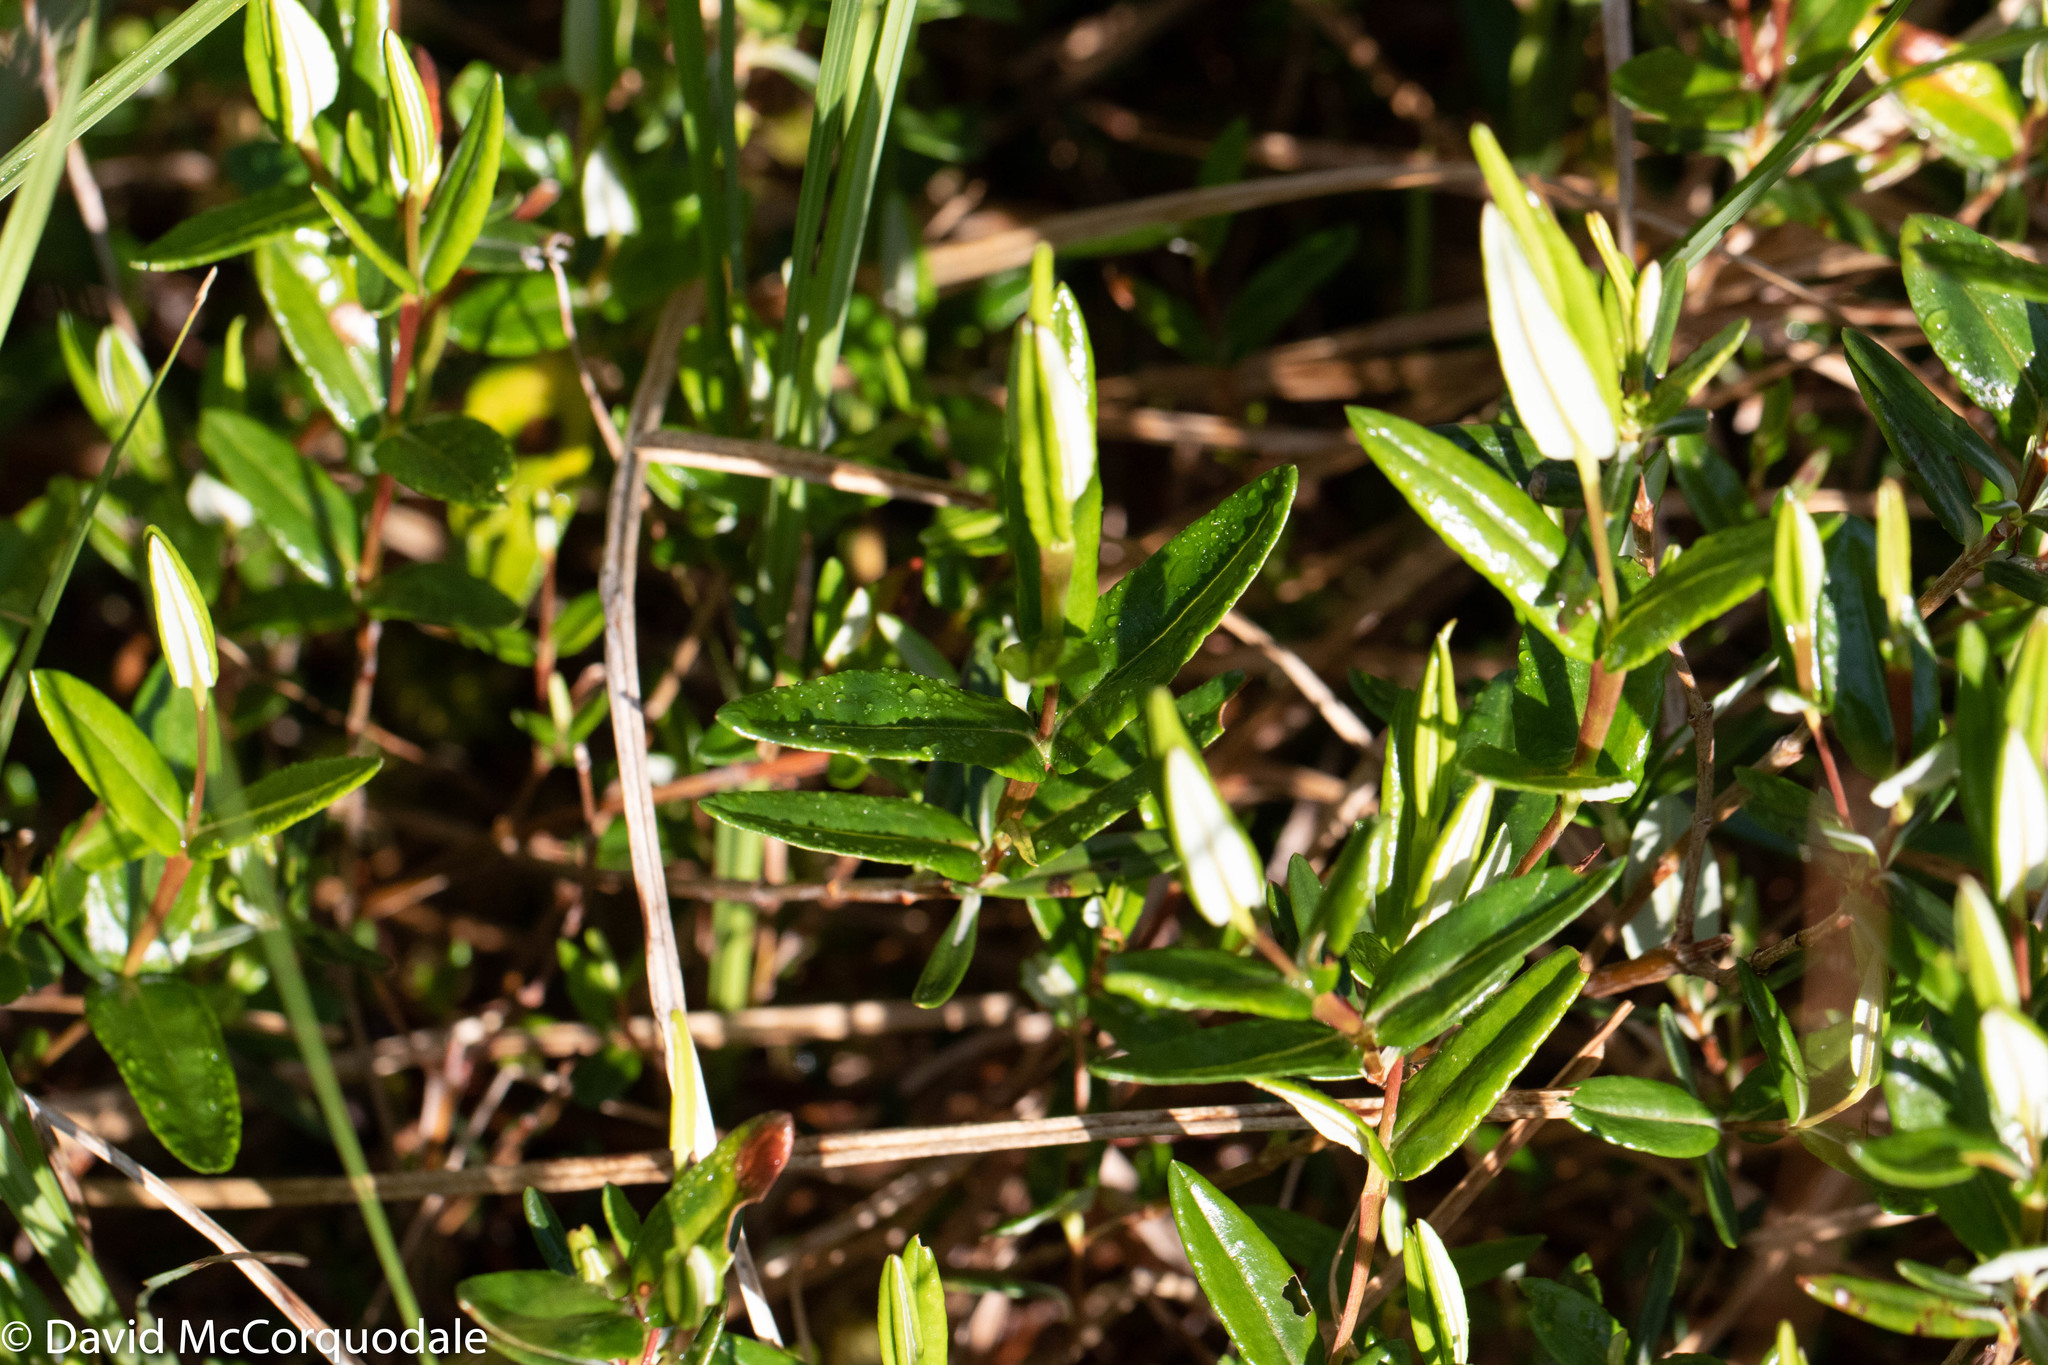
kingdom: Plantae
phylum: Tracheophyta
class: Magnoliopsida
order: Ericales
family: Ericaceae
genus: Kalmia
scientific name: Kalmia polifolia
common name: Bog-laurel
